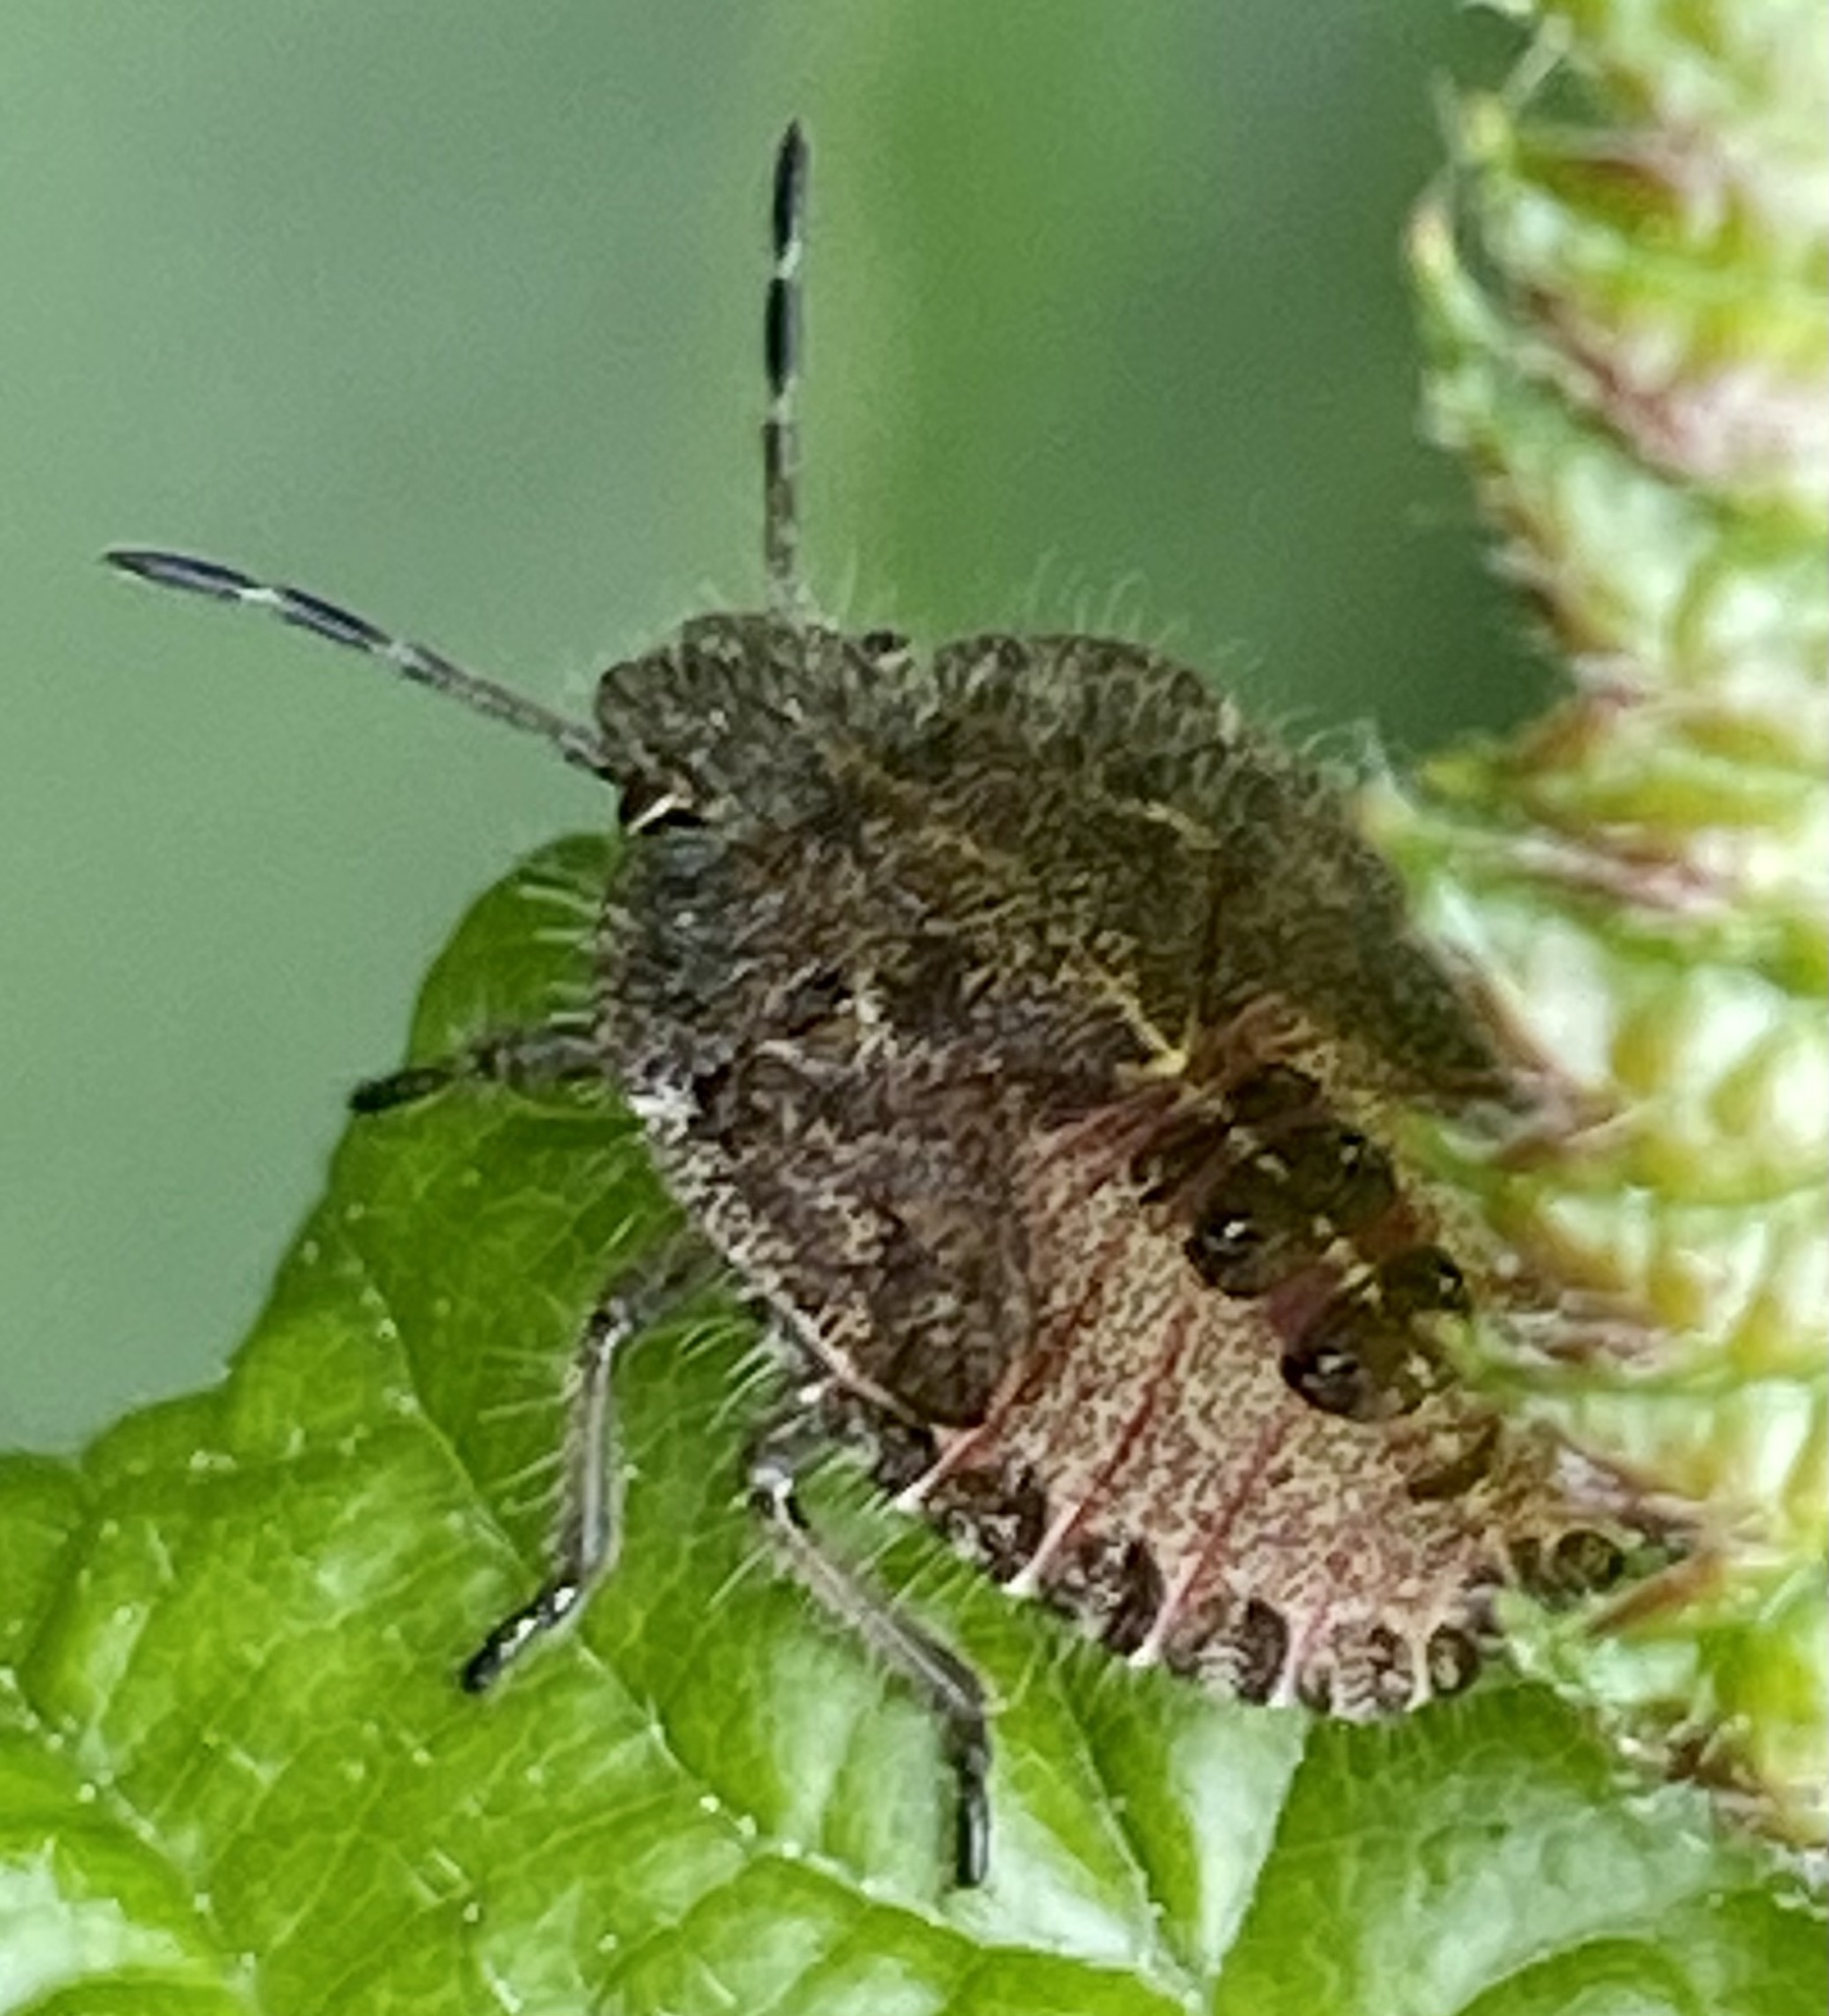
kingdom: Animalia
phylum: Arthropoda
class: Insecta
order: Hemiptera
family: Pentatomidae
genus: Dolycoris
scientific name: Dolycoris baccarum
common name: Sloe bug
